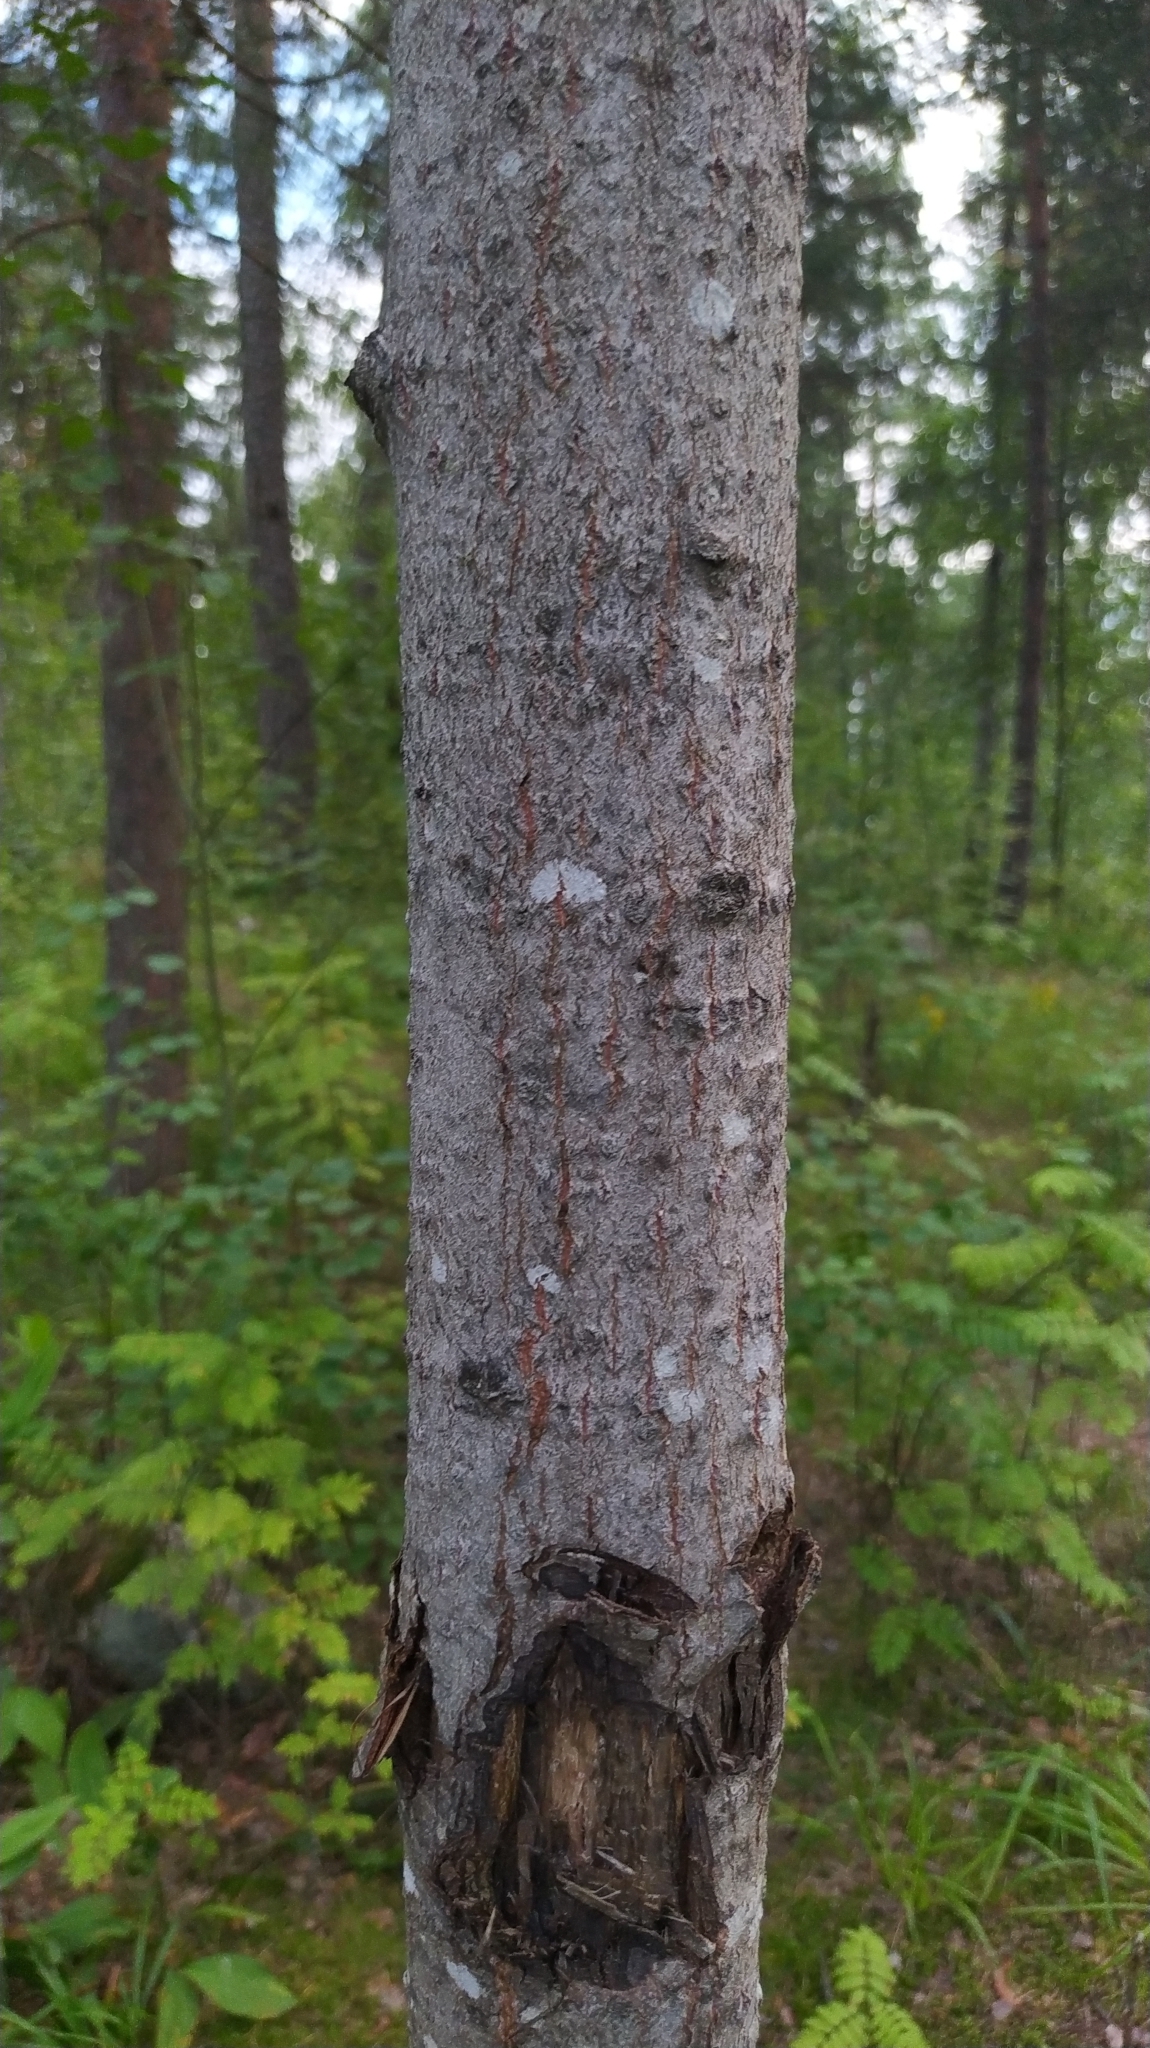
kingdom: Plantae
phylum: Tracheophyta
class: Magnoliopsida
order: Malpighiales
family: Salicaceae
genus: Populus
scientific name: Populus tremula
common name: European aspen
